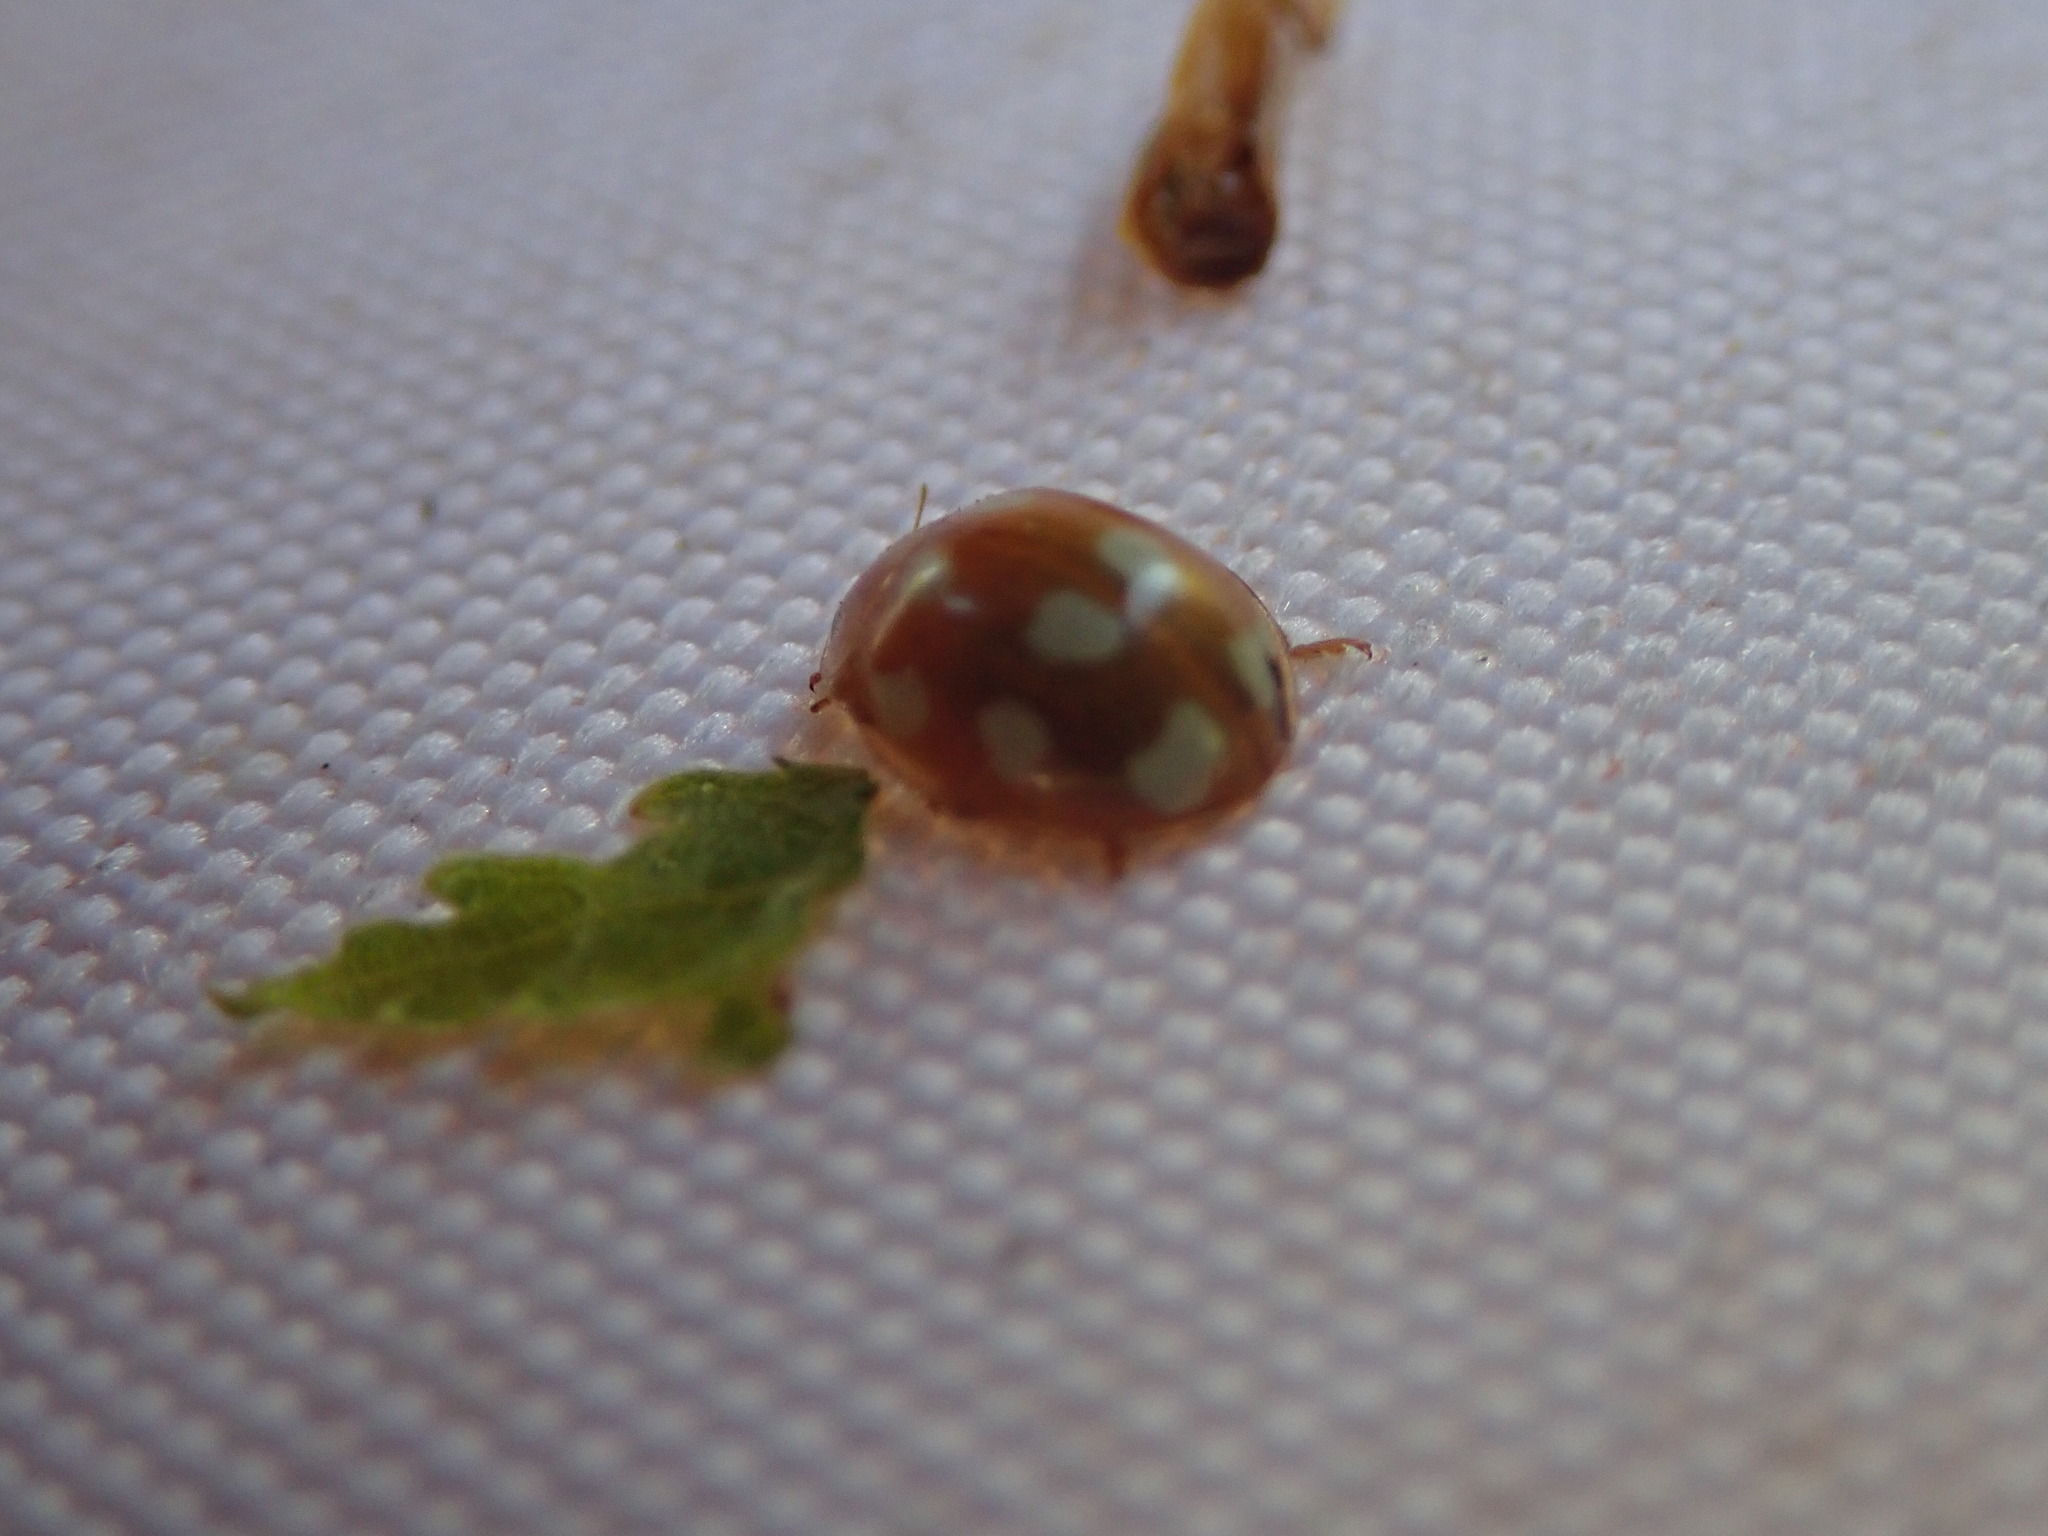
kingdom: Animalia
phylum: Arthropoda
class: Insecta
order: Coleoptera
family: Coccinellidae
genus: Calvia
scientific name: Calvia decemguttata
